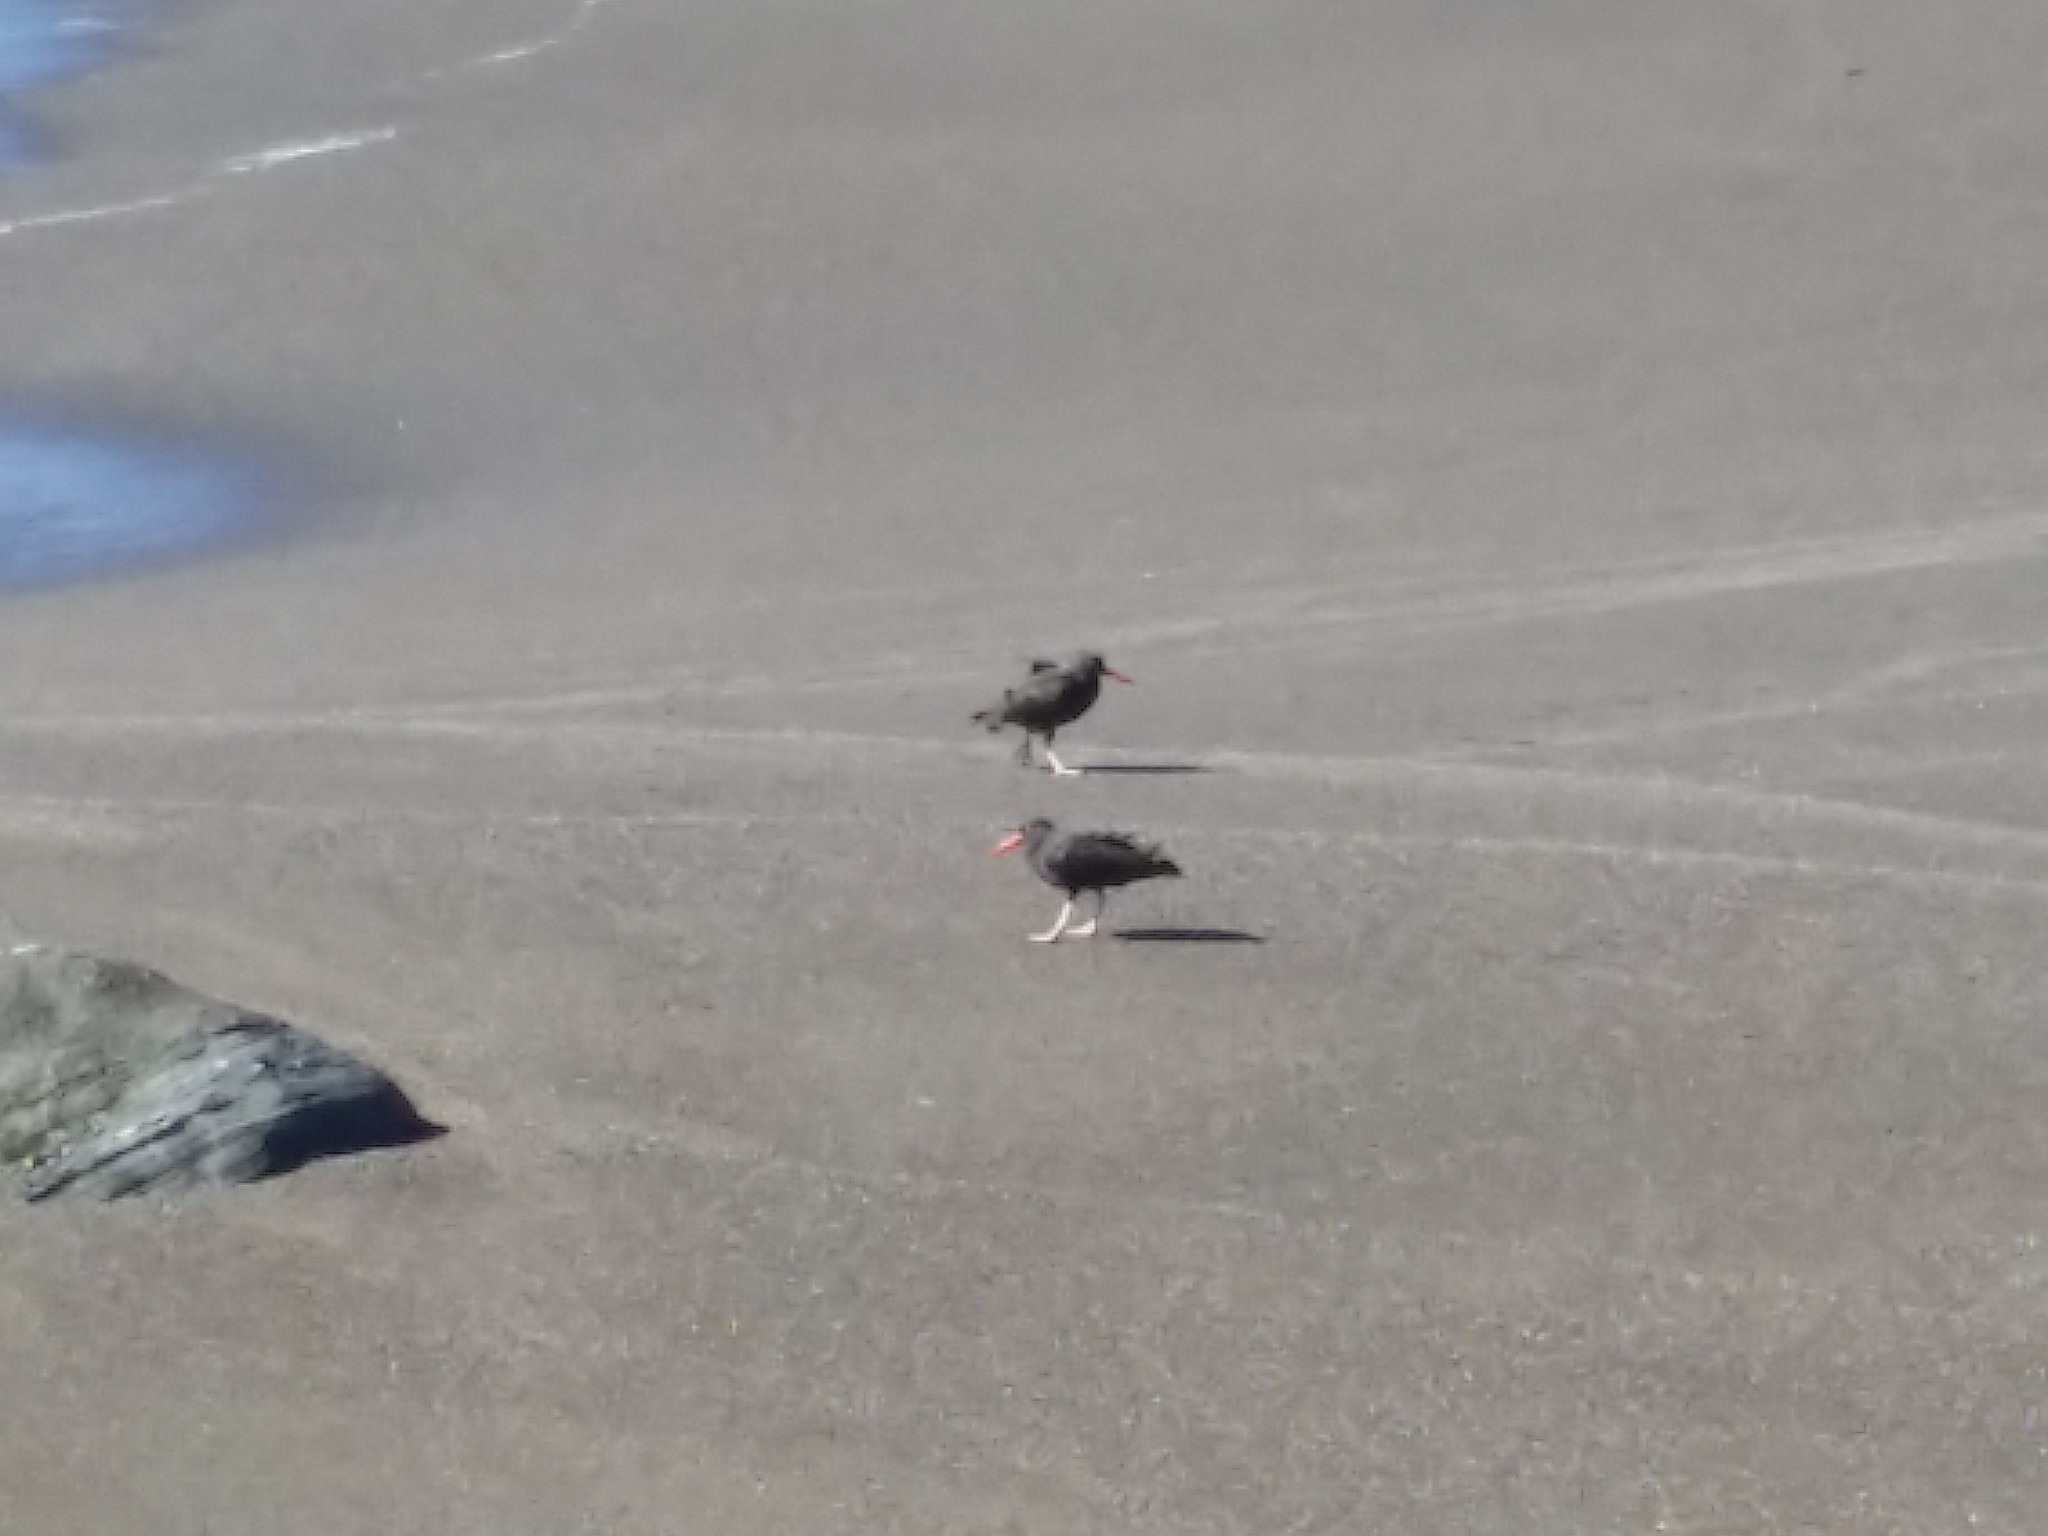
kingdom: Animalia
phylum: Chordata
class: Aves
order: Charadriiformes
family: Haematopodidae
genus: Haematopus
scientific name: Haematopus bachmani
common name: Black oystercatcher
